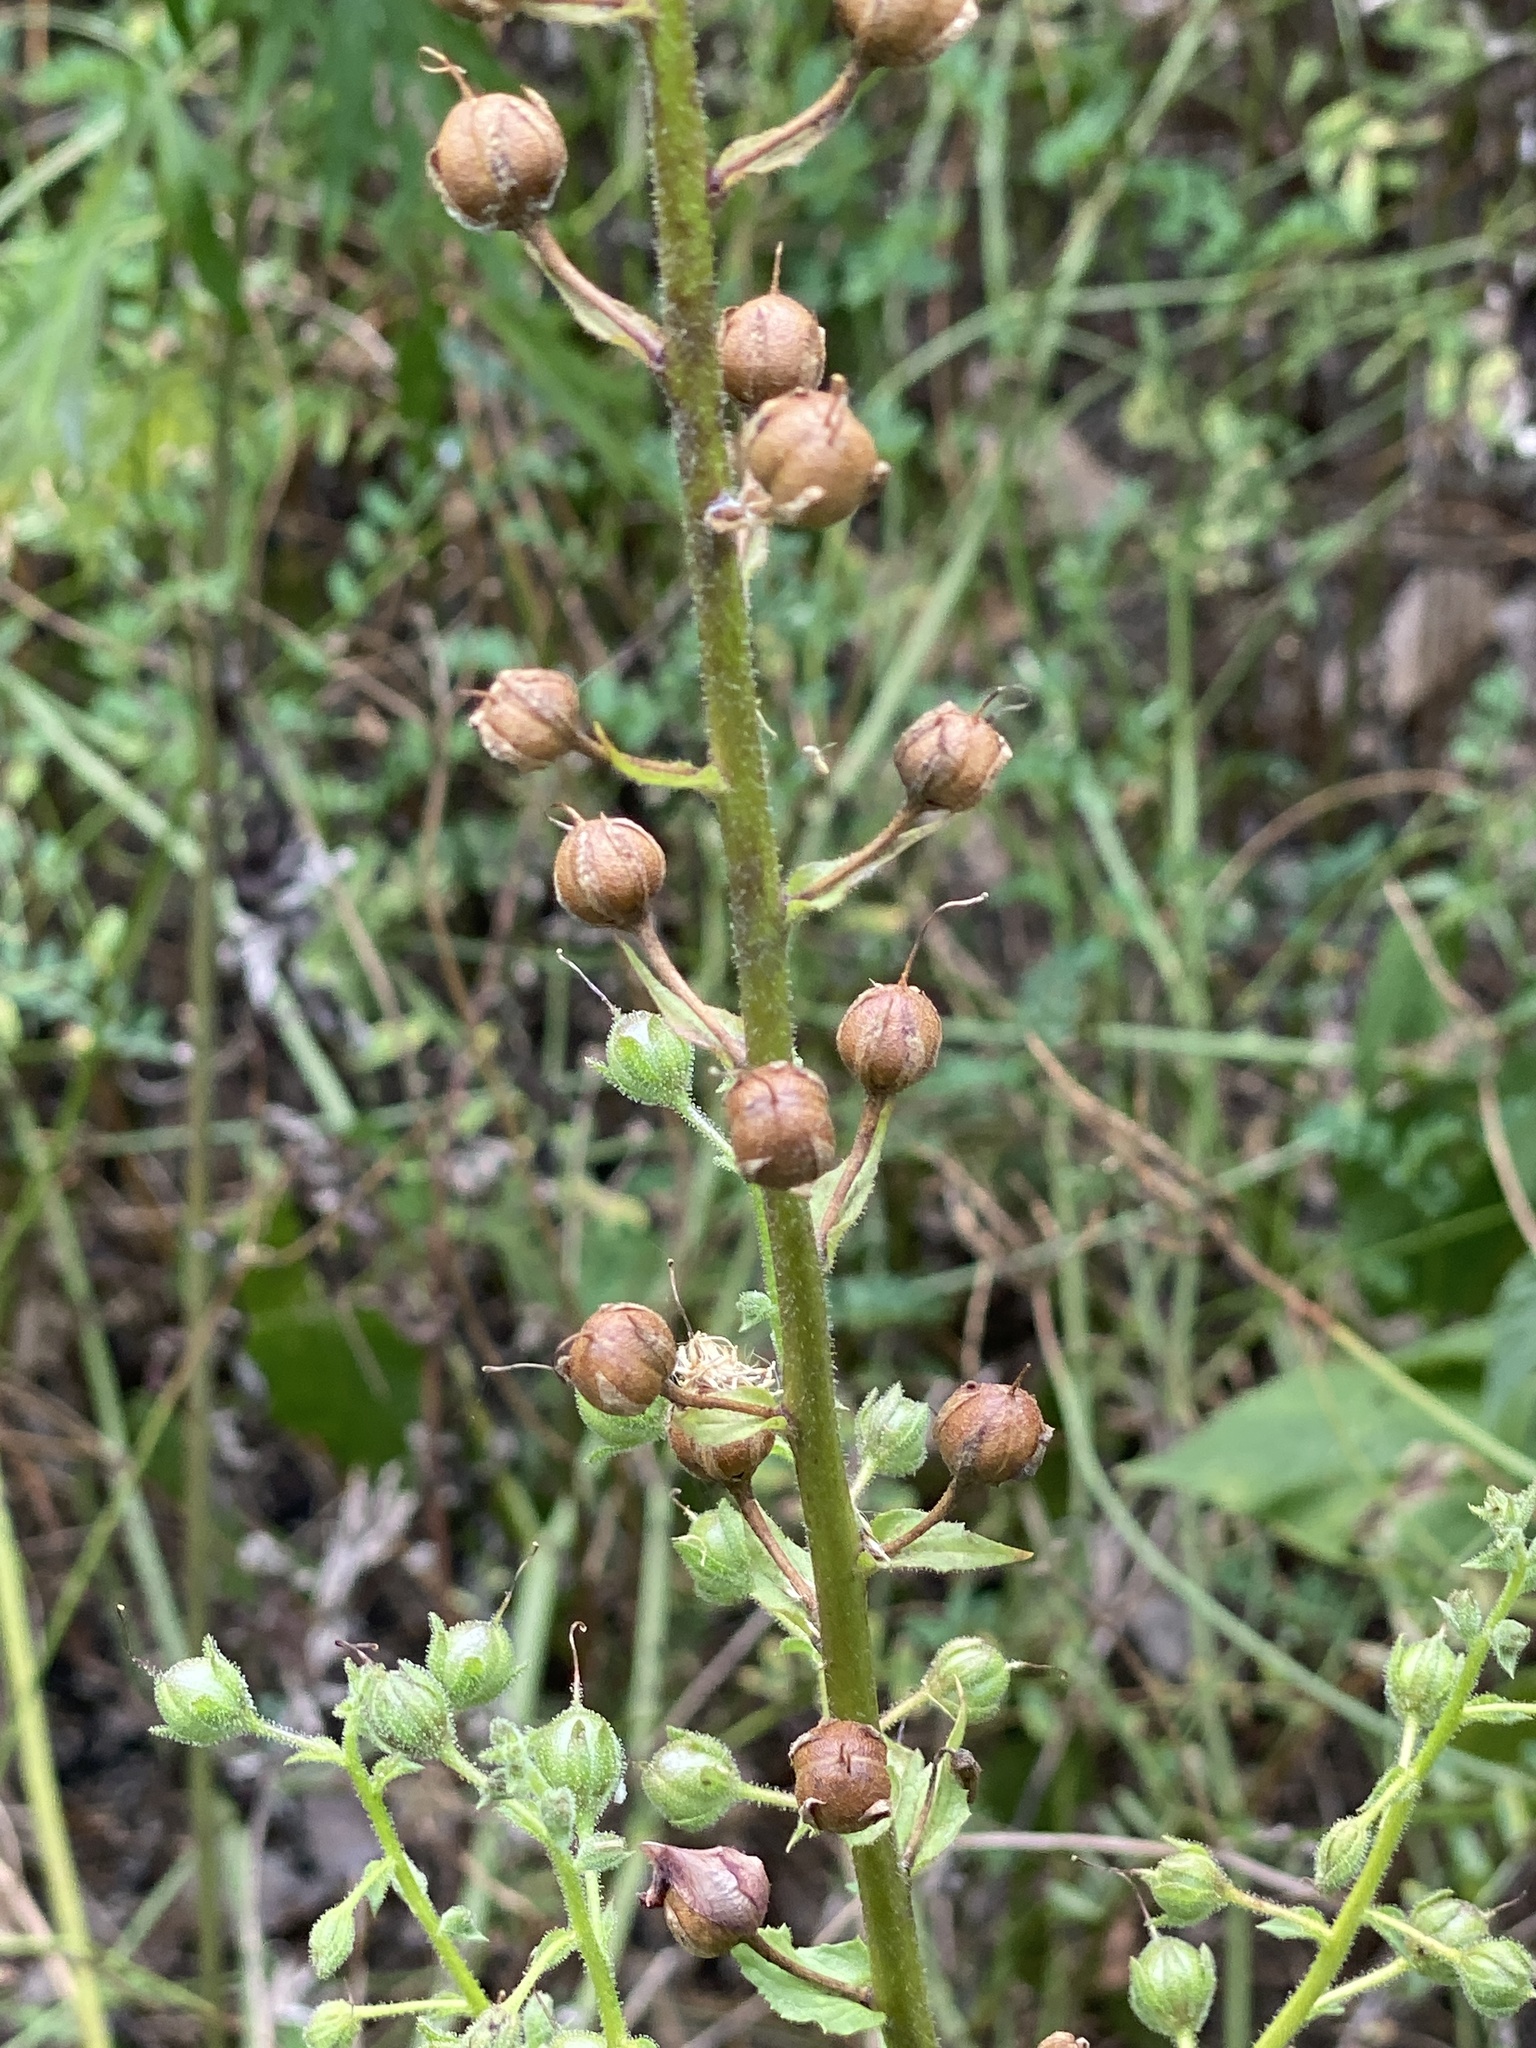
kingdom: Plantae
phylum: Tracheophyta
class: Magnoliopsida
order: Lamiales
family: Scrophulariaceae
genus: Verbascum
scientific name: Verbascum blattaria
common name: Moth mullein
